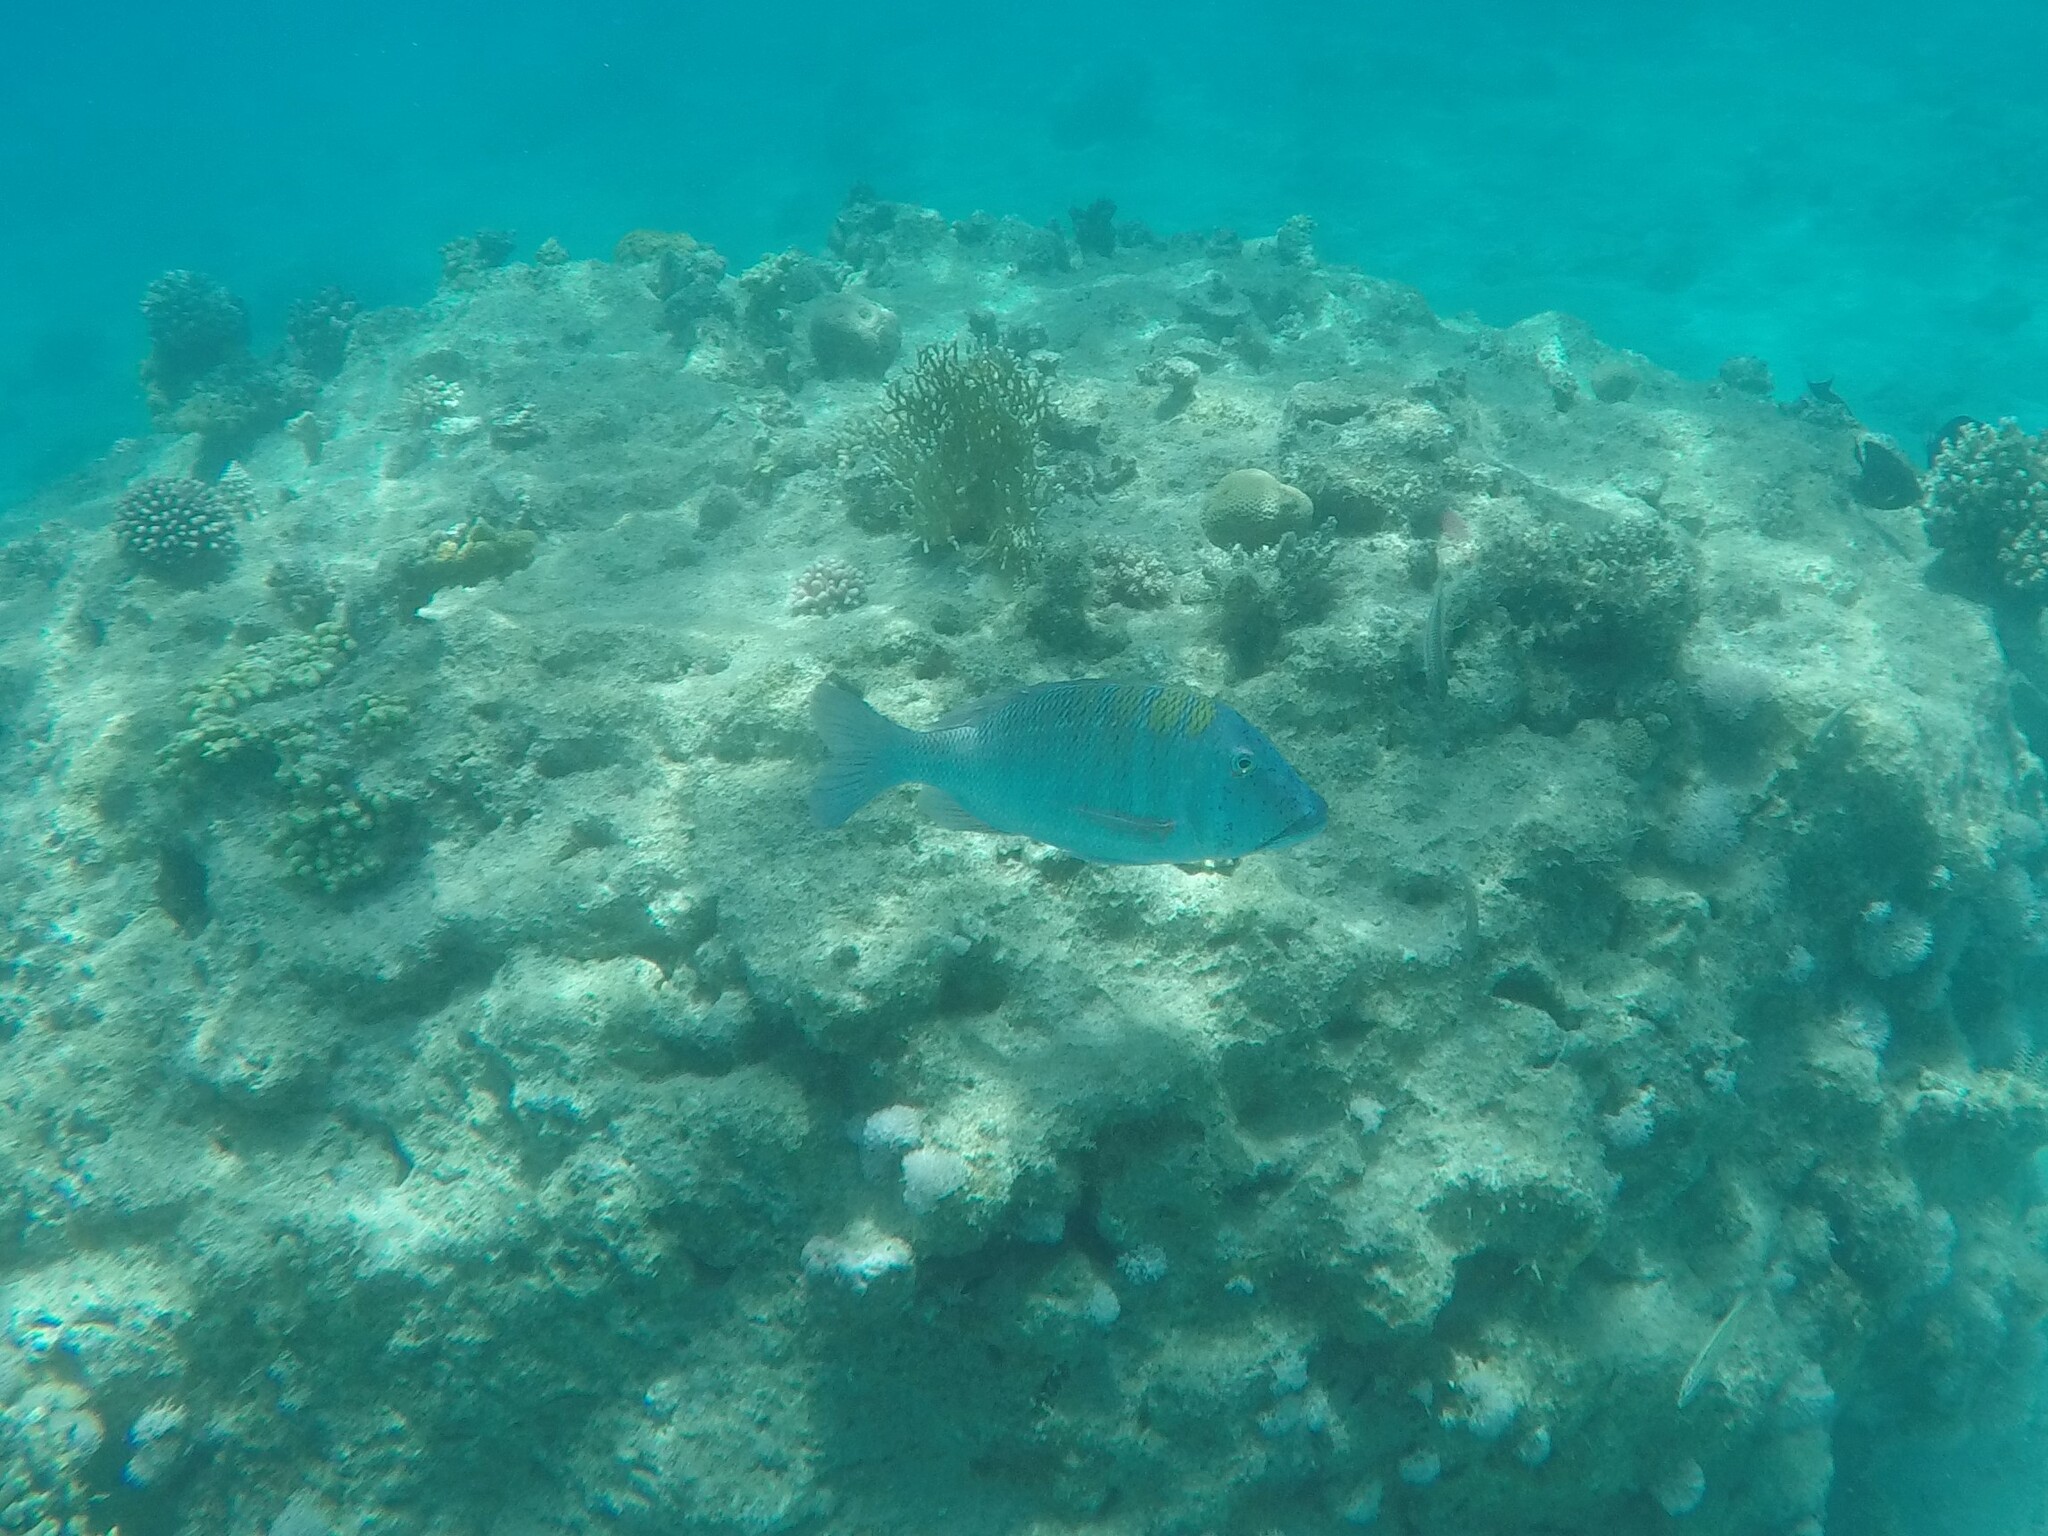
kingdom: Animalia
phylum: Chordata
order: Perciformes
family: Lethrinidae
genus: Lethrinus
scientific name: Lethrinus nebulosus
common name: Spangled emperor
